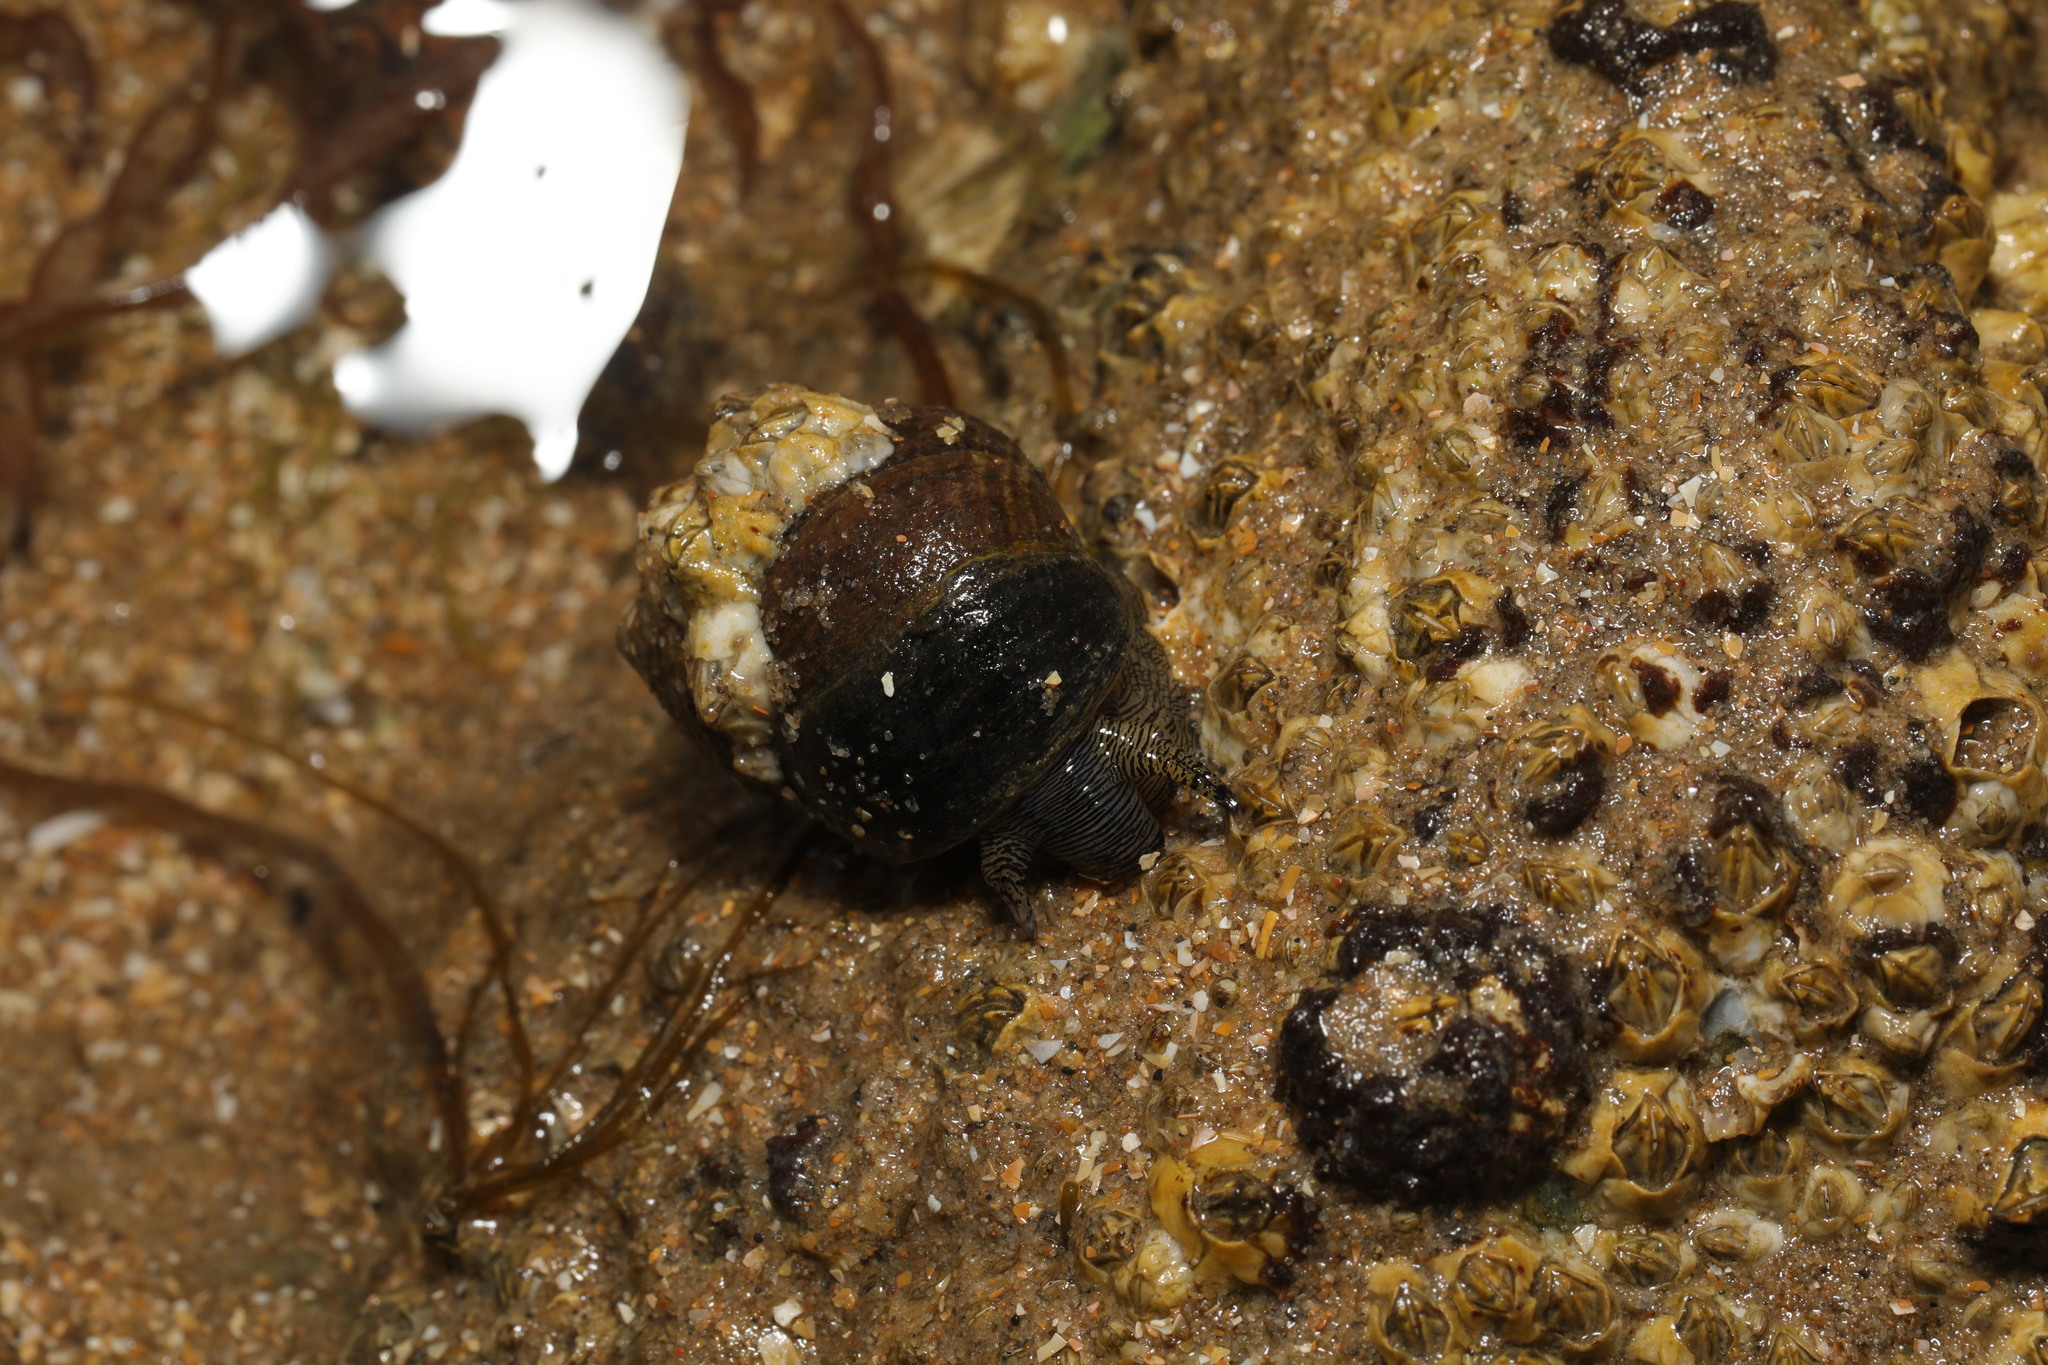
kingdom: Animalia
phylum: Mollusca
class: Gastropoda
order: Littorinimorpha
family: Littorinidae
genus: Littorina
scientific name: Littorina littorea
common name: Common periwinkle
